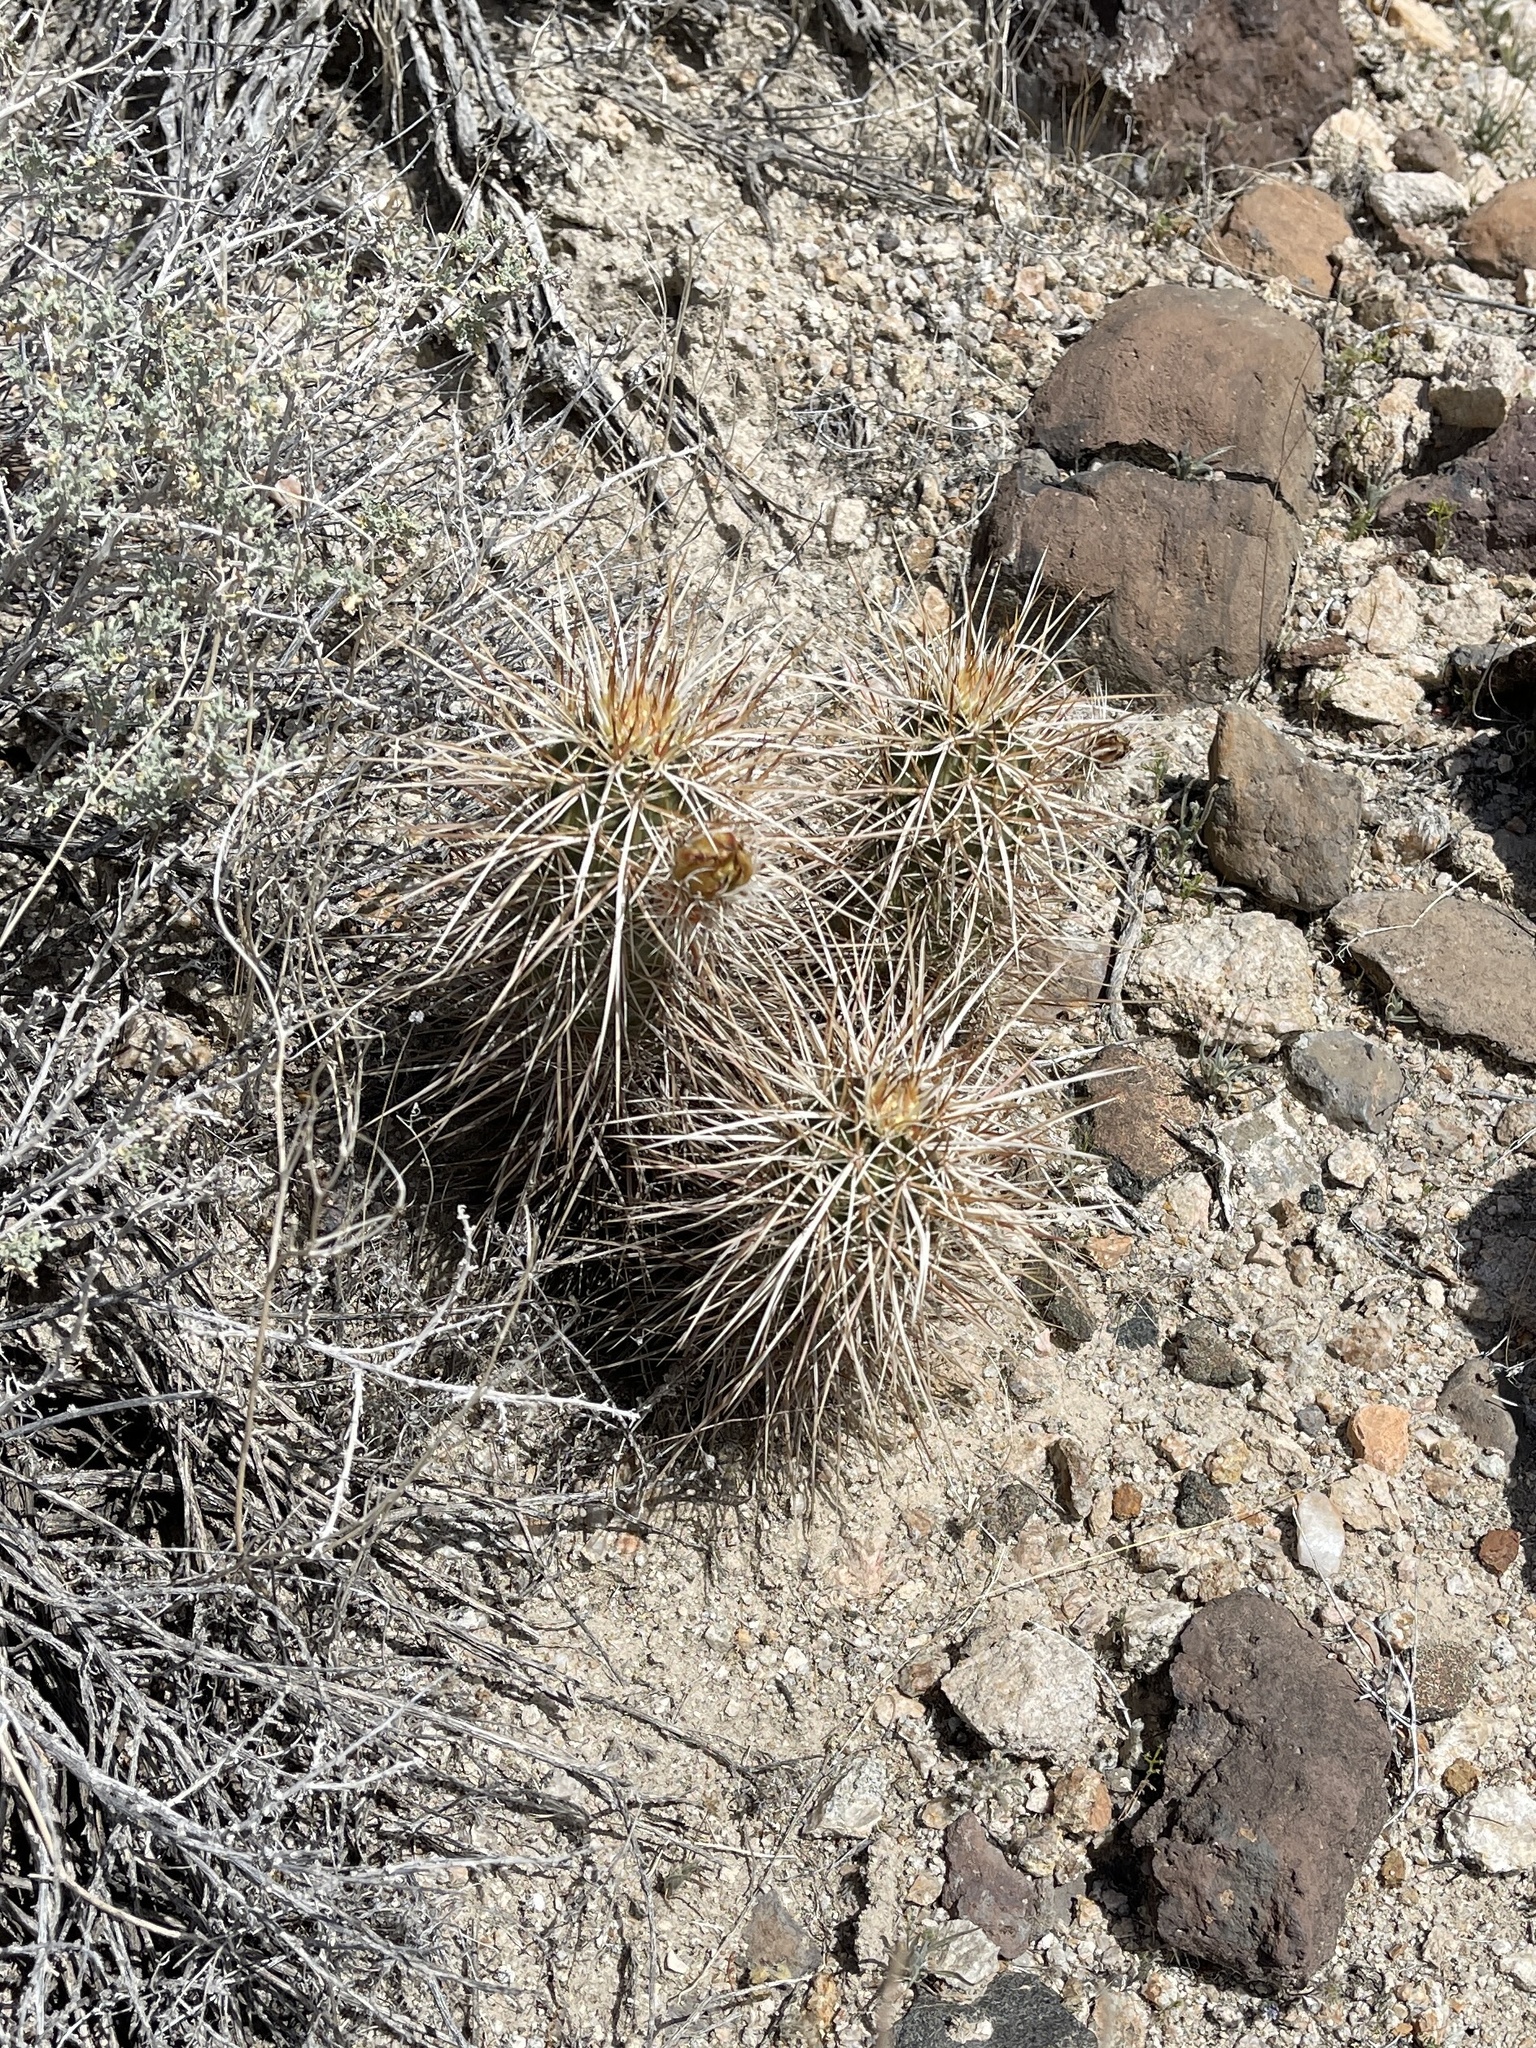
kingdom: Plantae
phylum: Tracheophyta
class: Magnoliopsida
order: Caryophyllales
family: Cactaceae
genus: Echinocereus
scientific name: Echinocereus engelmannii
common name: Engelmann's hedgehog cactus
